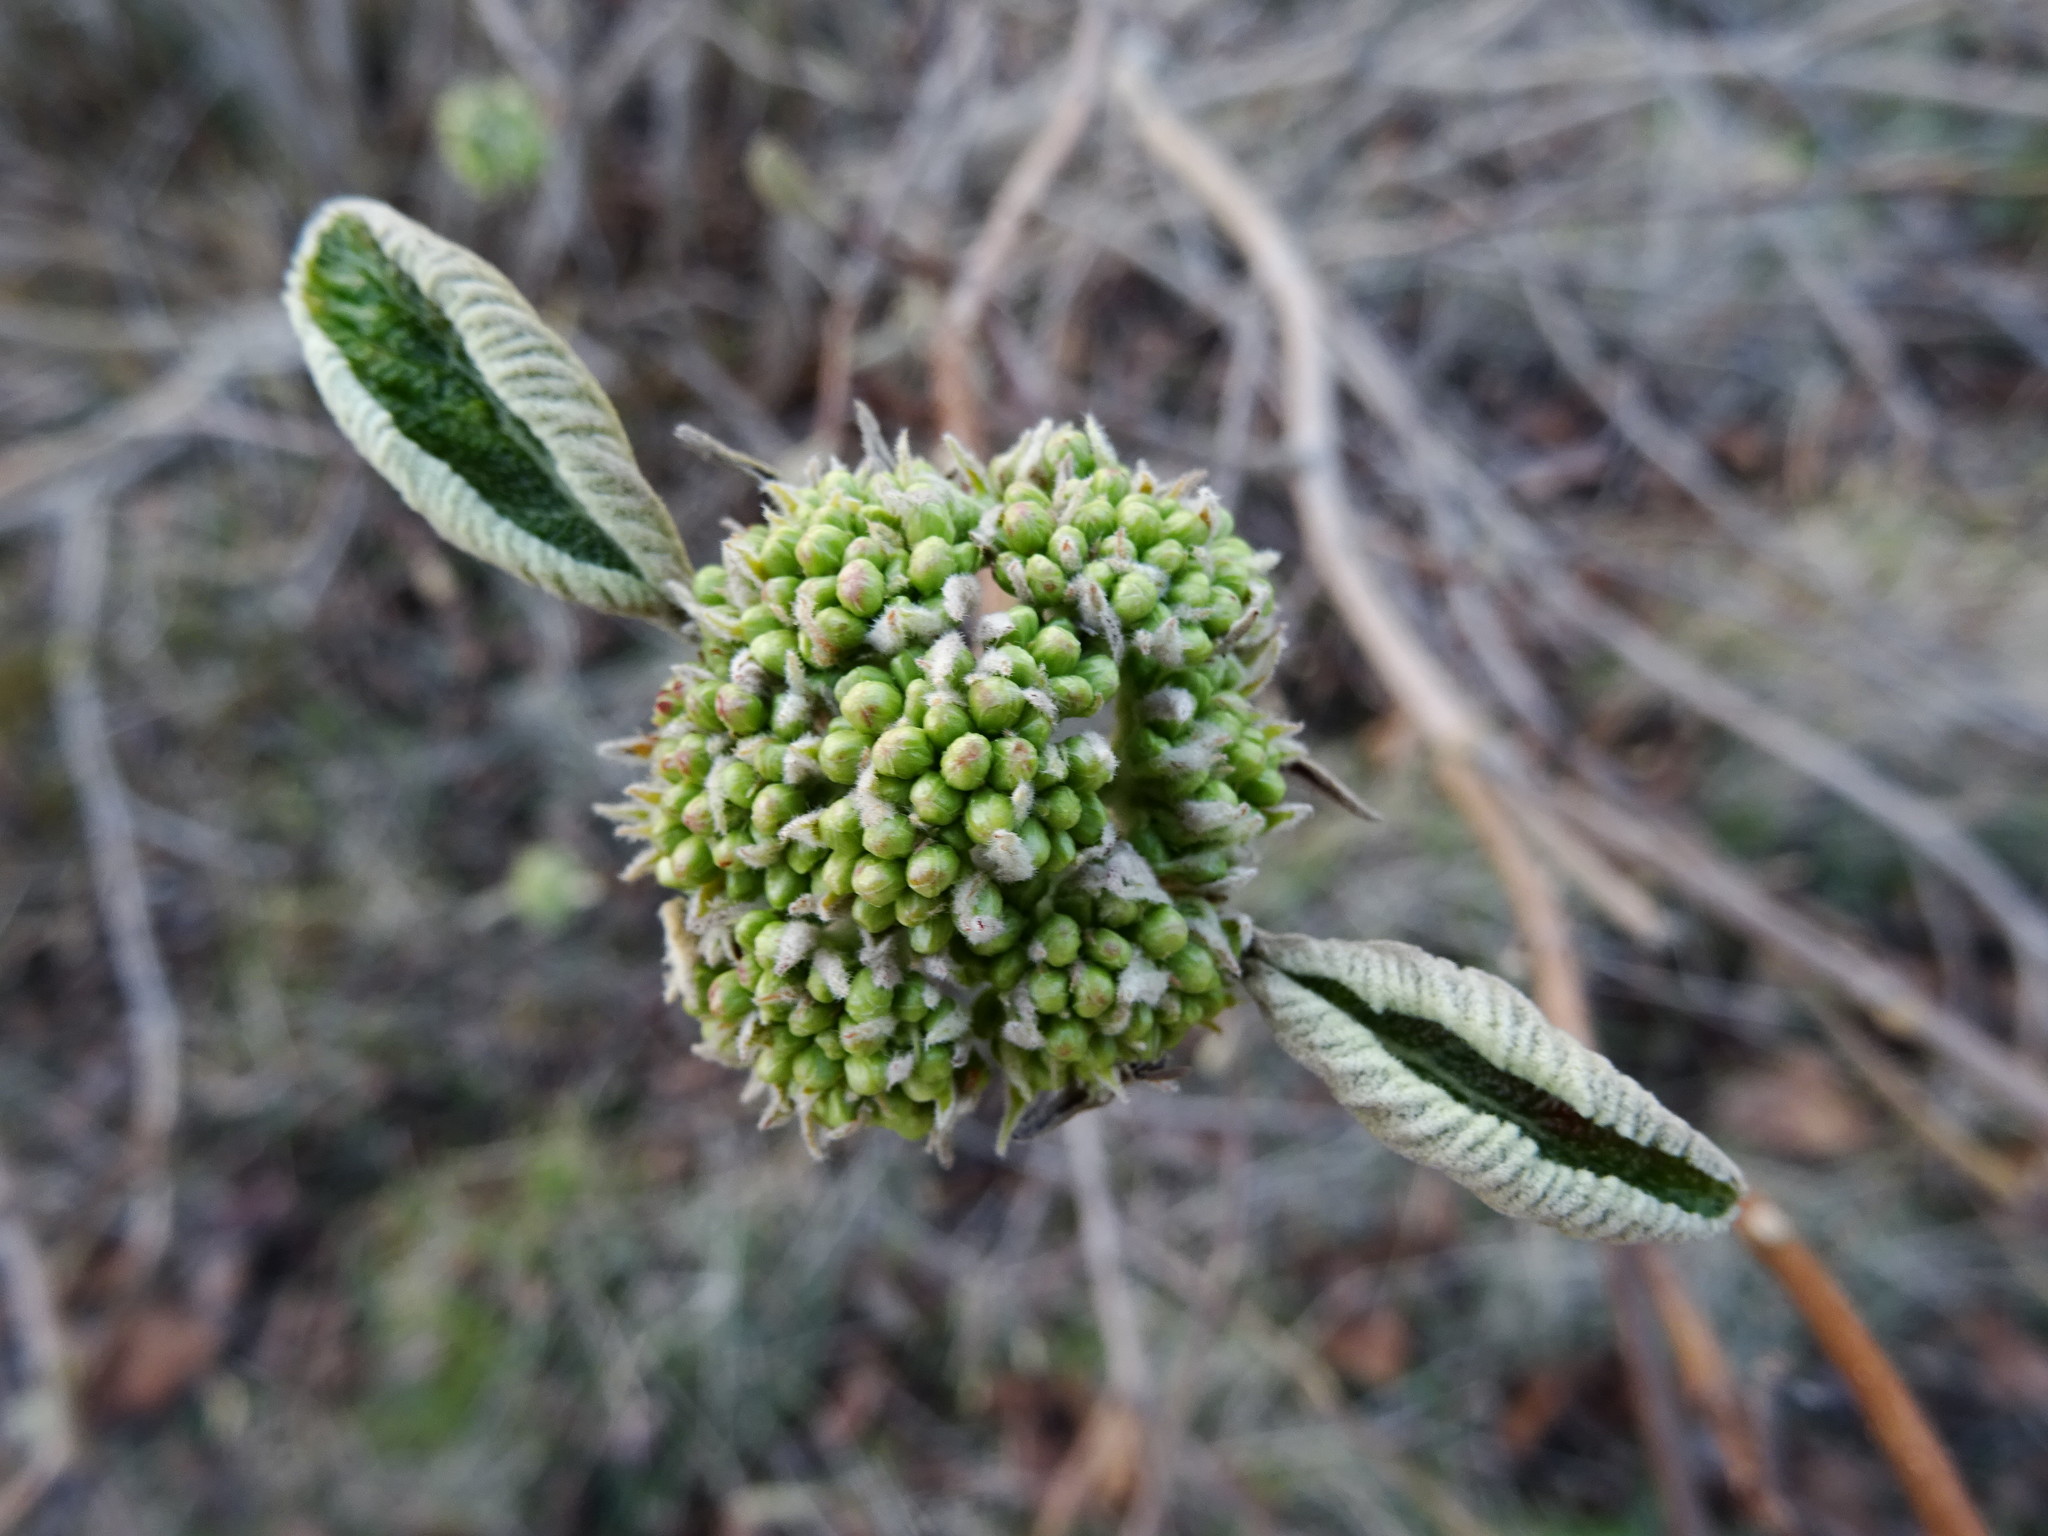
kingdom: Plantae
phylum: Tracheophyta
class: Magnoliopsida
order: Dipsacales
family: Viburnaceae
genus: Viburnum
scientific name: Viburnum lantana
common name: Wayfaring tree
